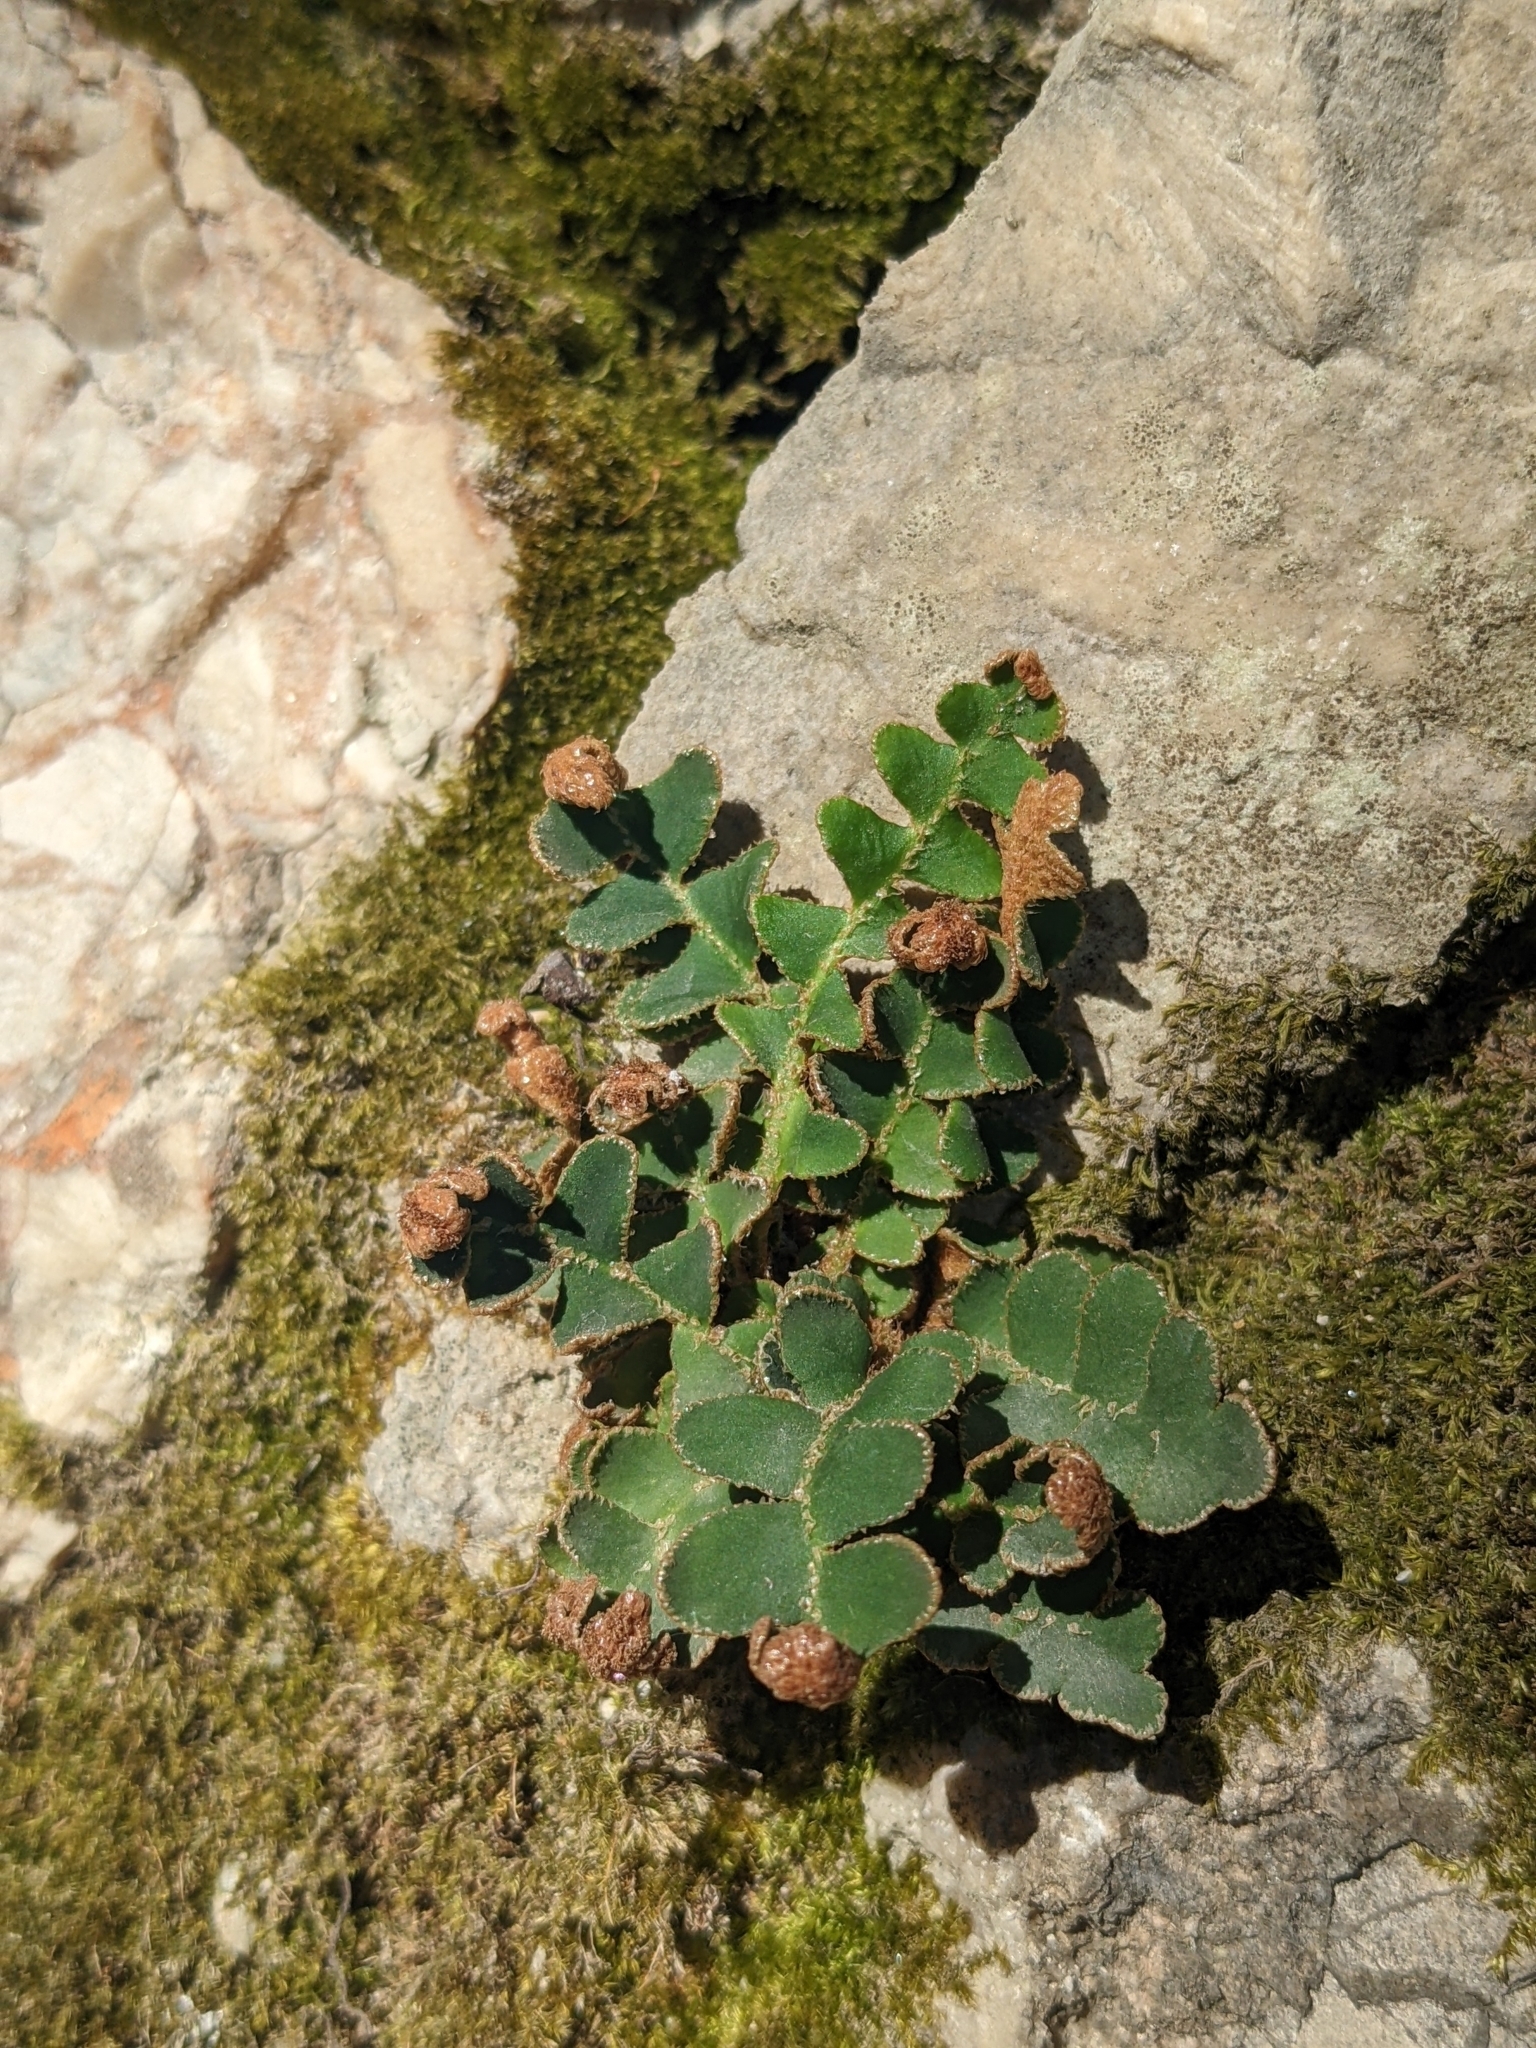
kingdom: Plantae
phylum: Tracheophyta
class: Polypodiopsida
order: Polypodiales
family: Aspleniaceae
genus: Asplenium
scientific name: Asplenium ceterach
